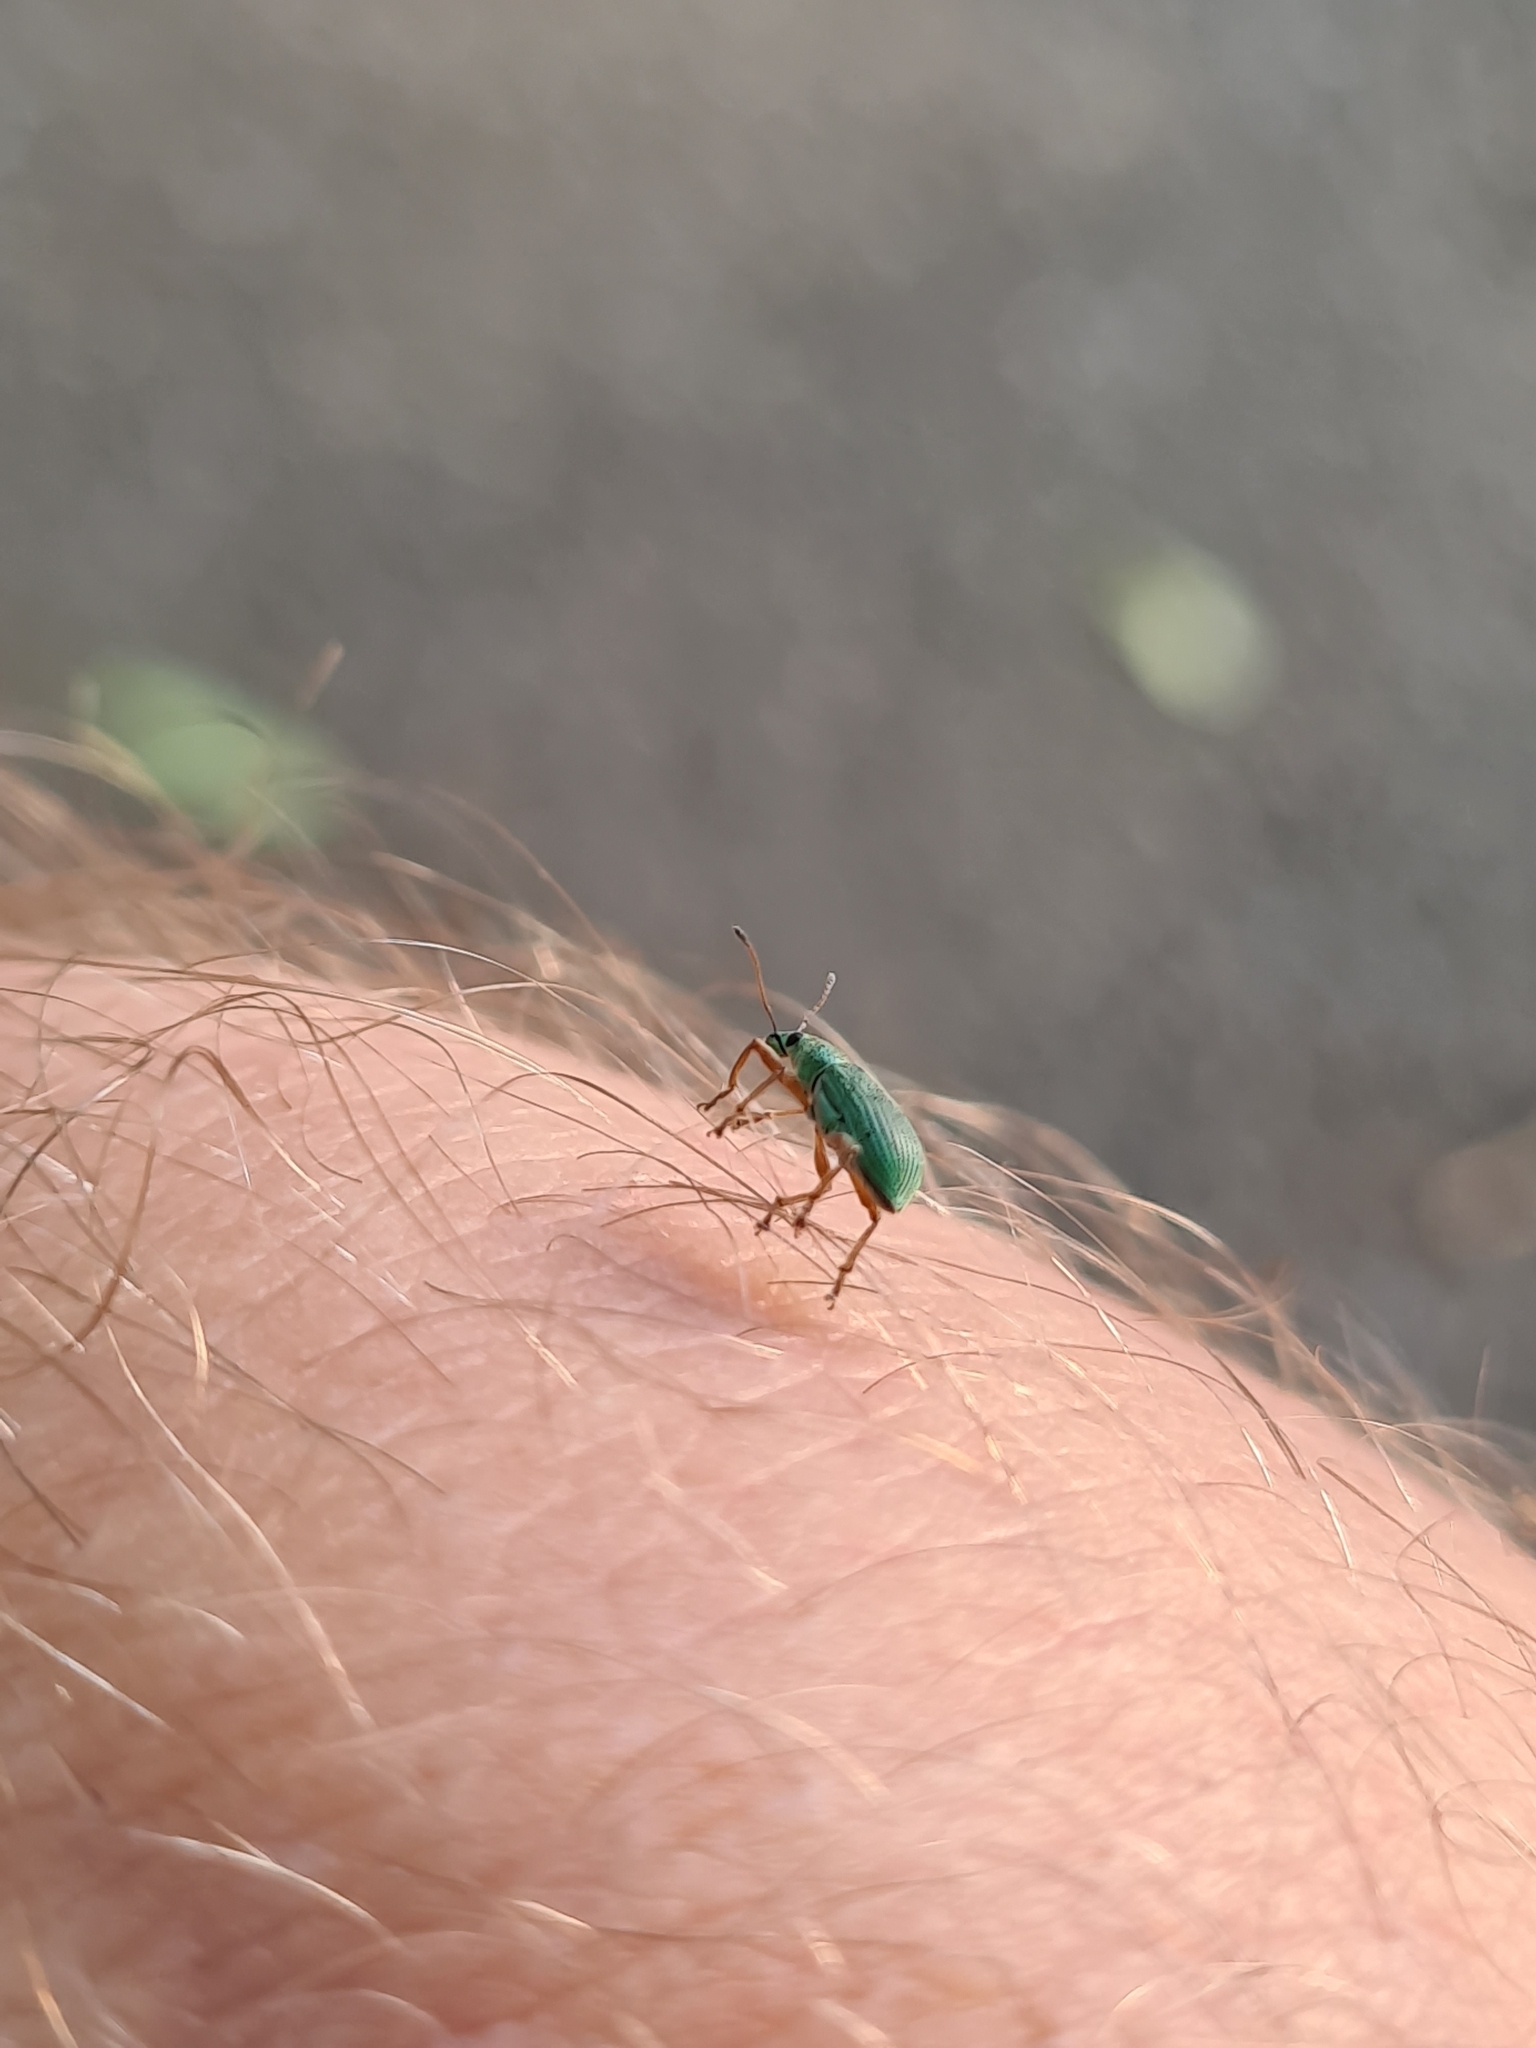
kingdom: Animalia
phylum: Arthropoda
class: Insecta
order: Coleoptera
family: Curculionidae
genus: Polydrusus
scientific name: Polydrusus formosus
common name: Weevil
